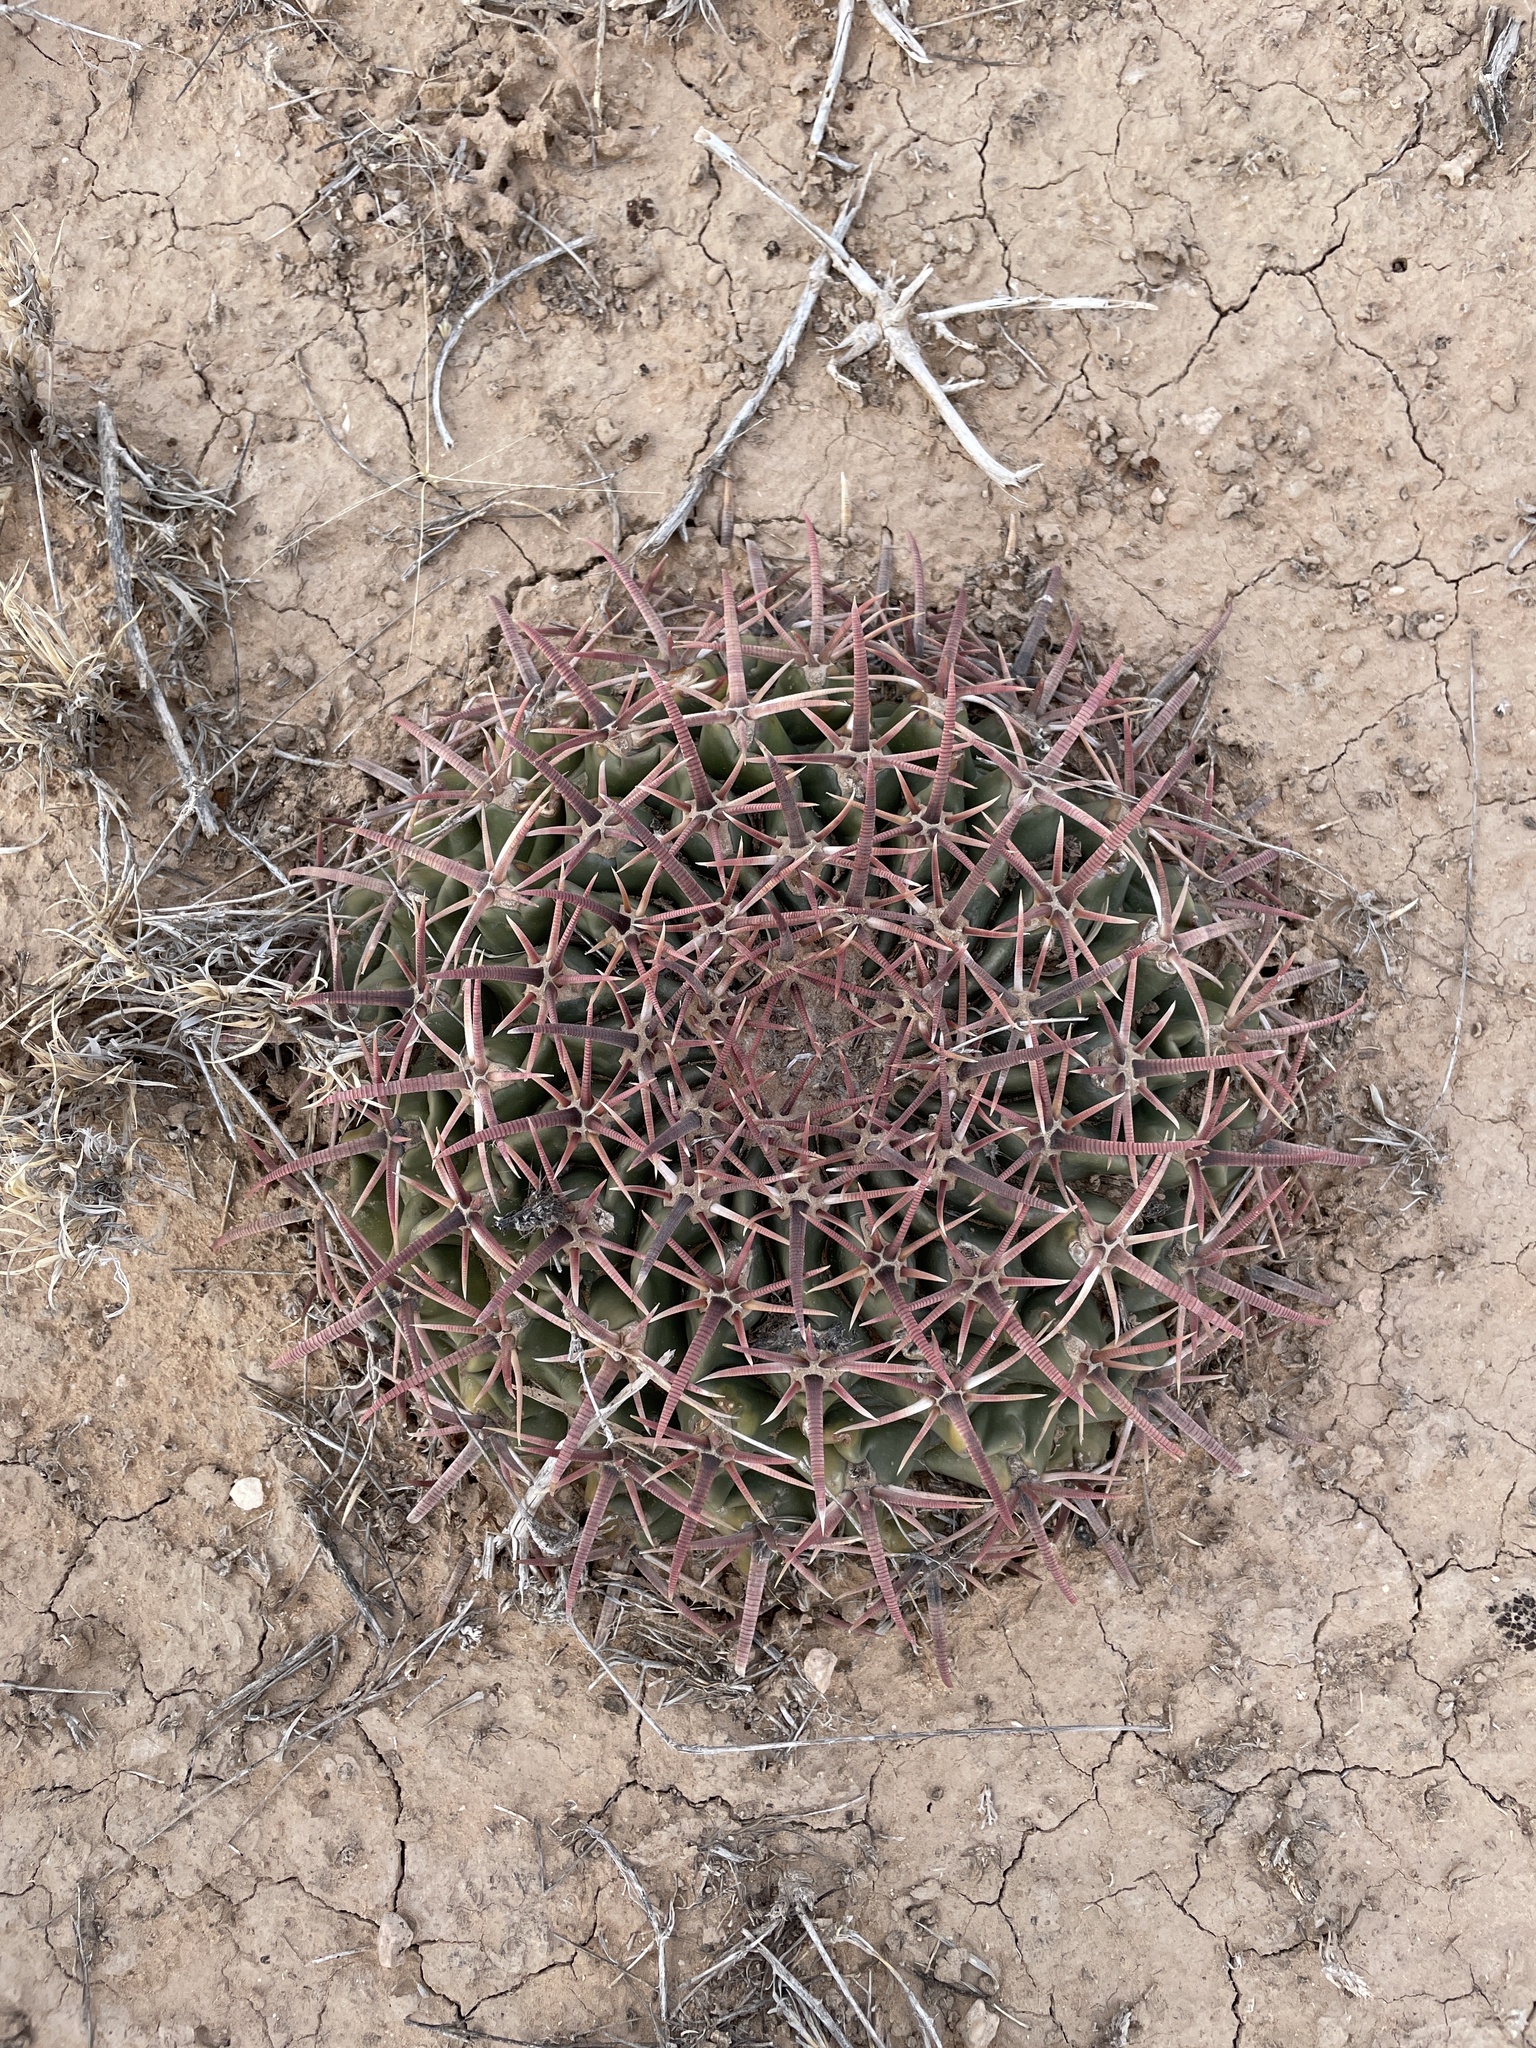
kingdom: Plantae
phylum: Tracheophyta
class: Magnoliopsida
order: Caryophyllales
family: Cactaceae
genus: Echinocactus
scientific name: Echinocactus texensis
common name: Devil's pincushion
